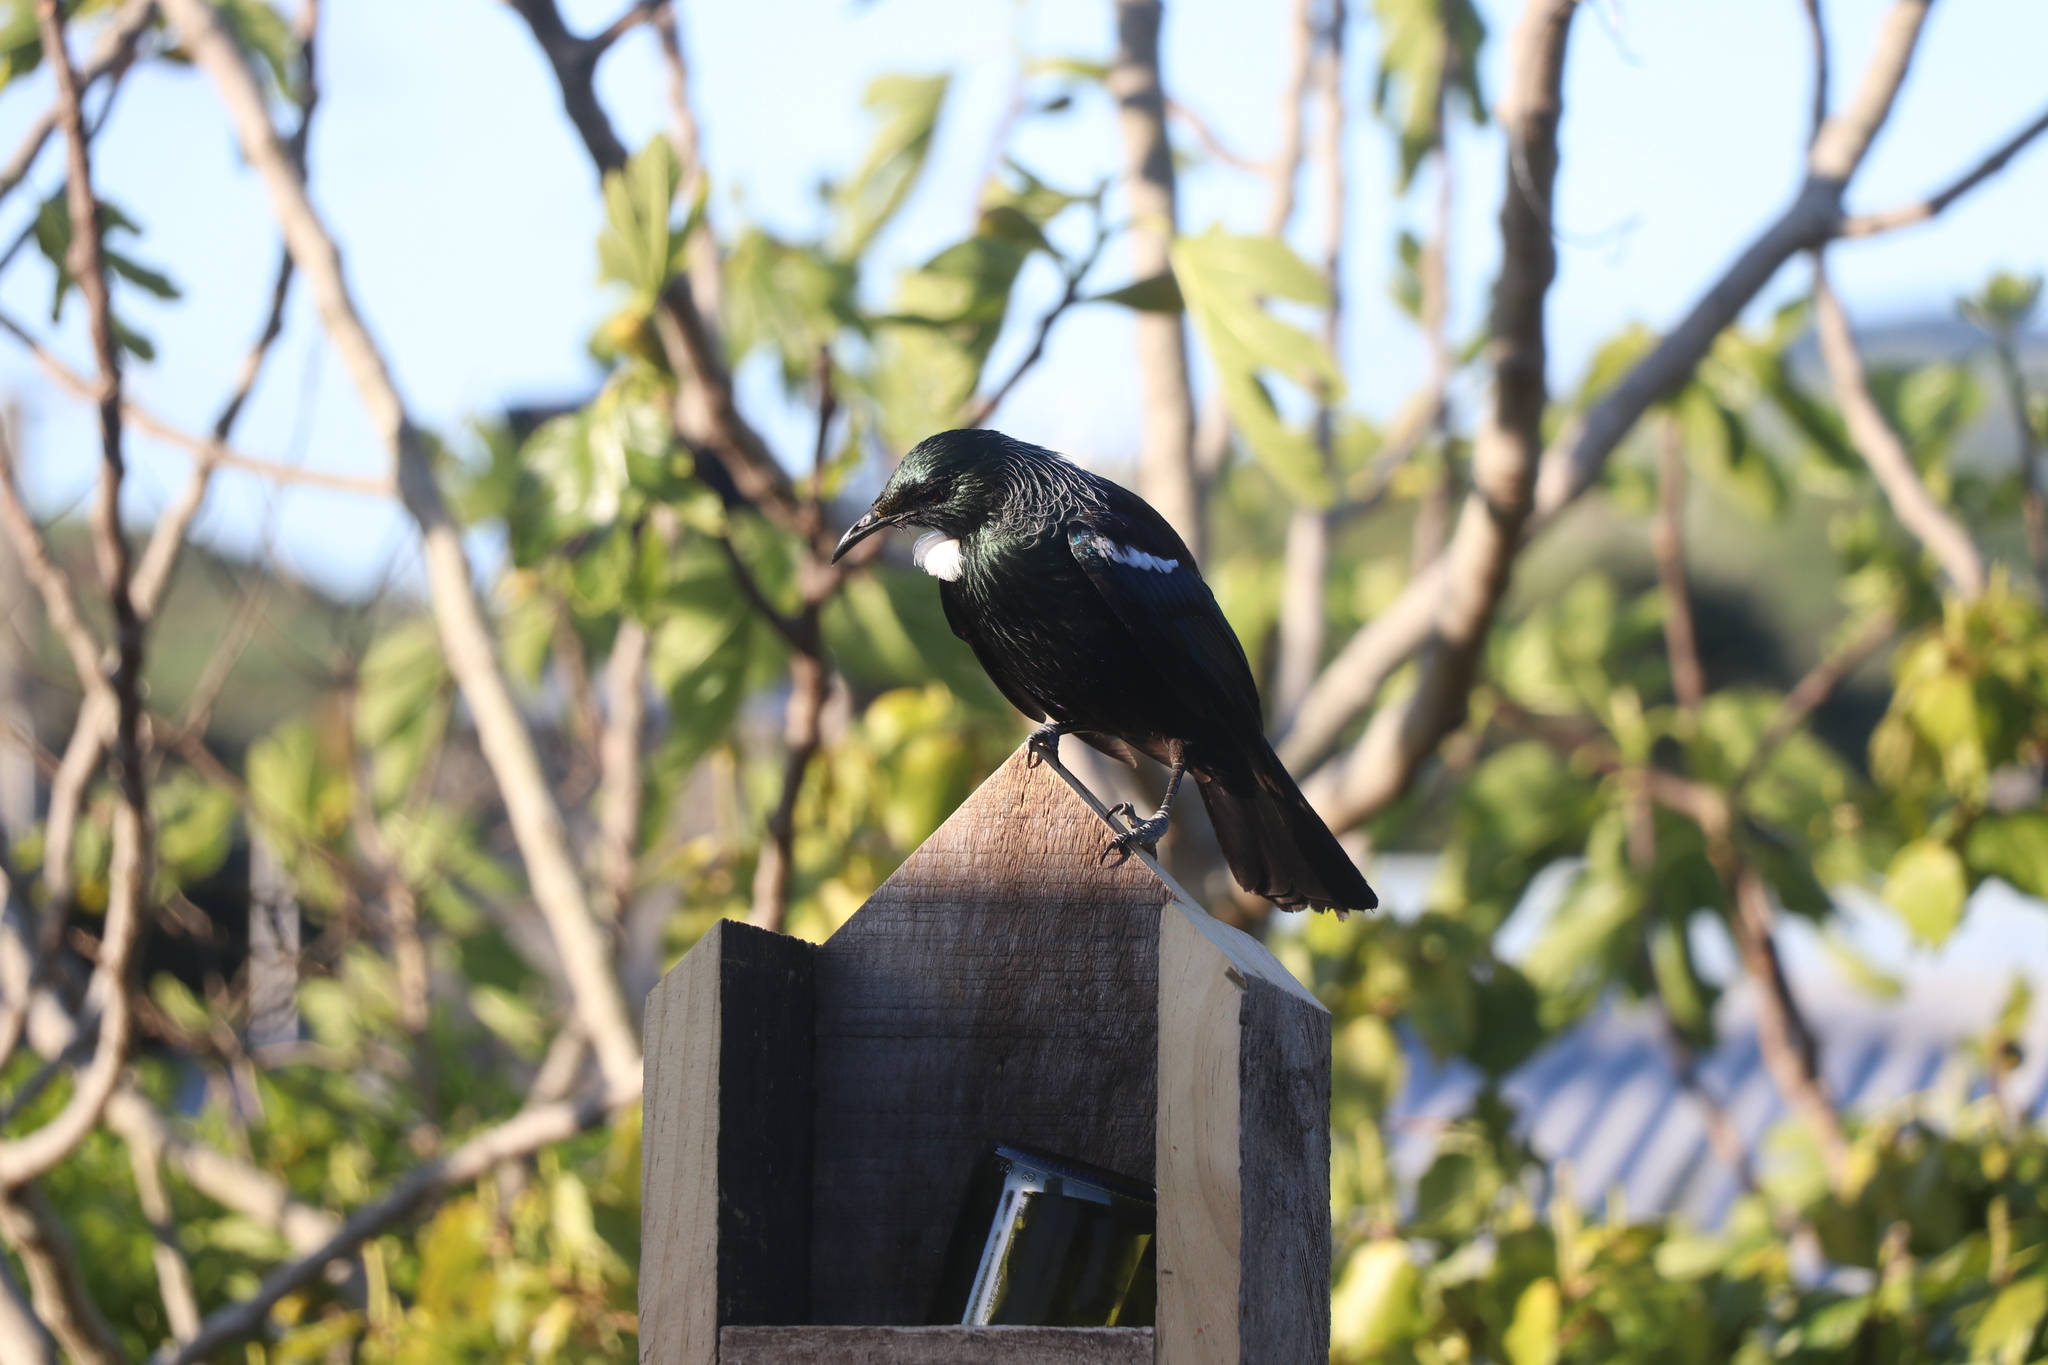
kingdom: Animalia
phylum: Chordata
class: Aves
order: Passeriformes
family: Meliphagidae
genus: Prosthemadera
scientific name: Prosthemadera novaeseelandiae
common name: Tui
